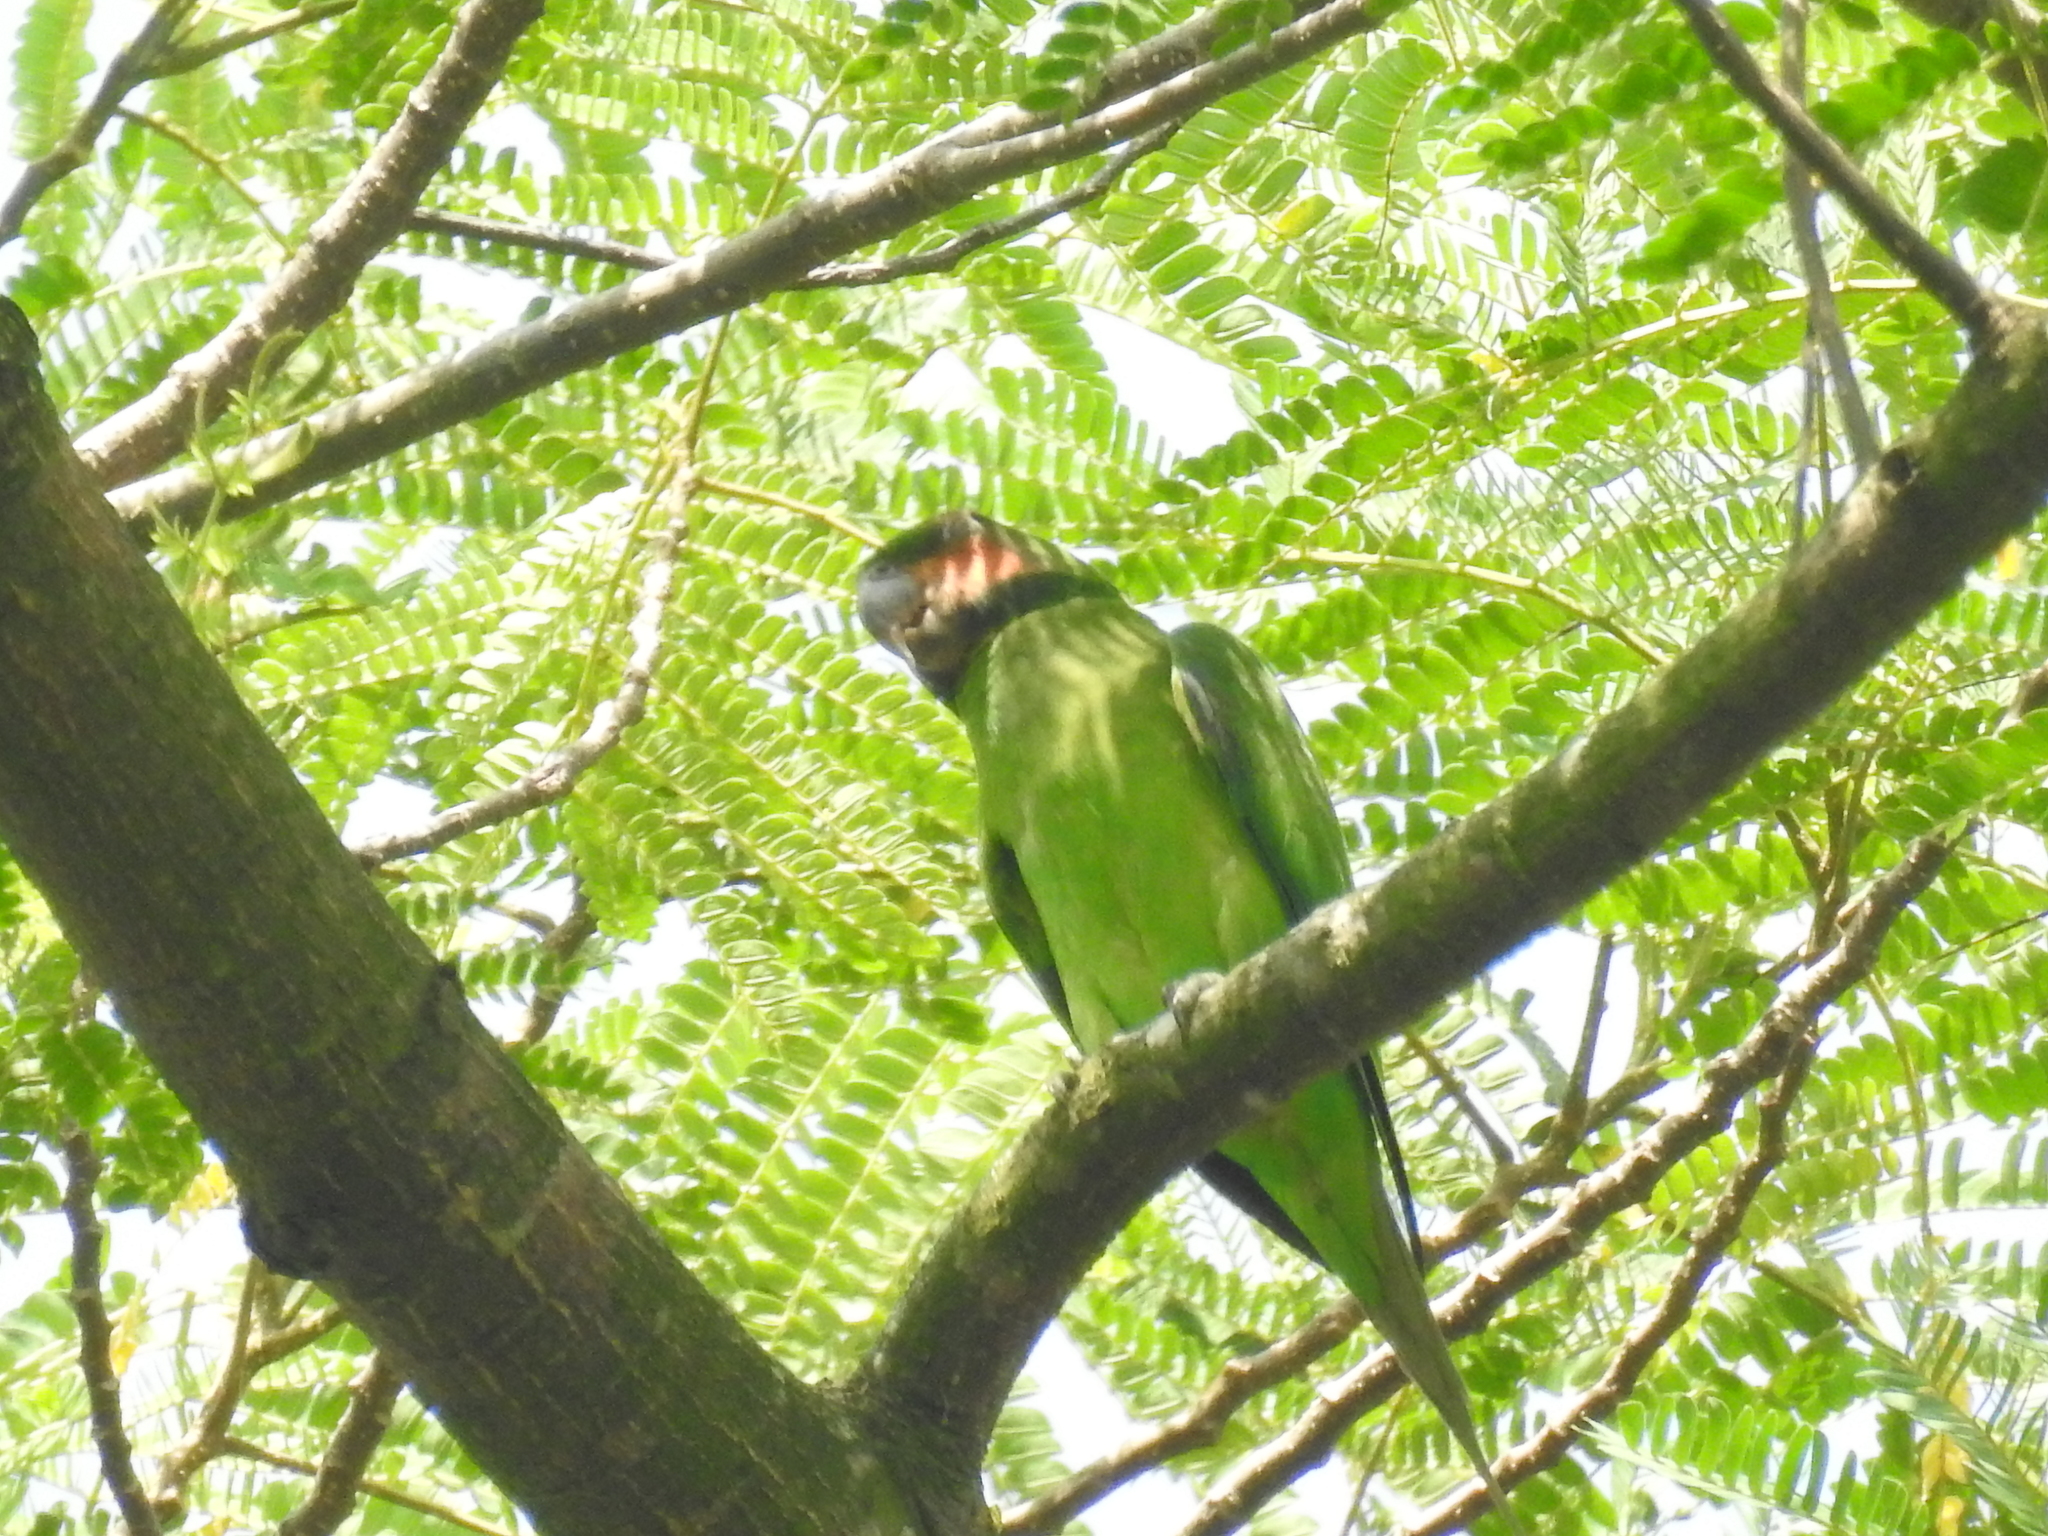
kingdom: Animalia
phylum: Chordata
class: Aves
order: Psittaciformes
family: Psittacidae
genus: Psittacula
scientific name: Psittacula longicauda
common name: Long-tailed parakeet
